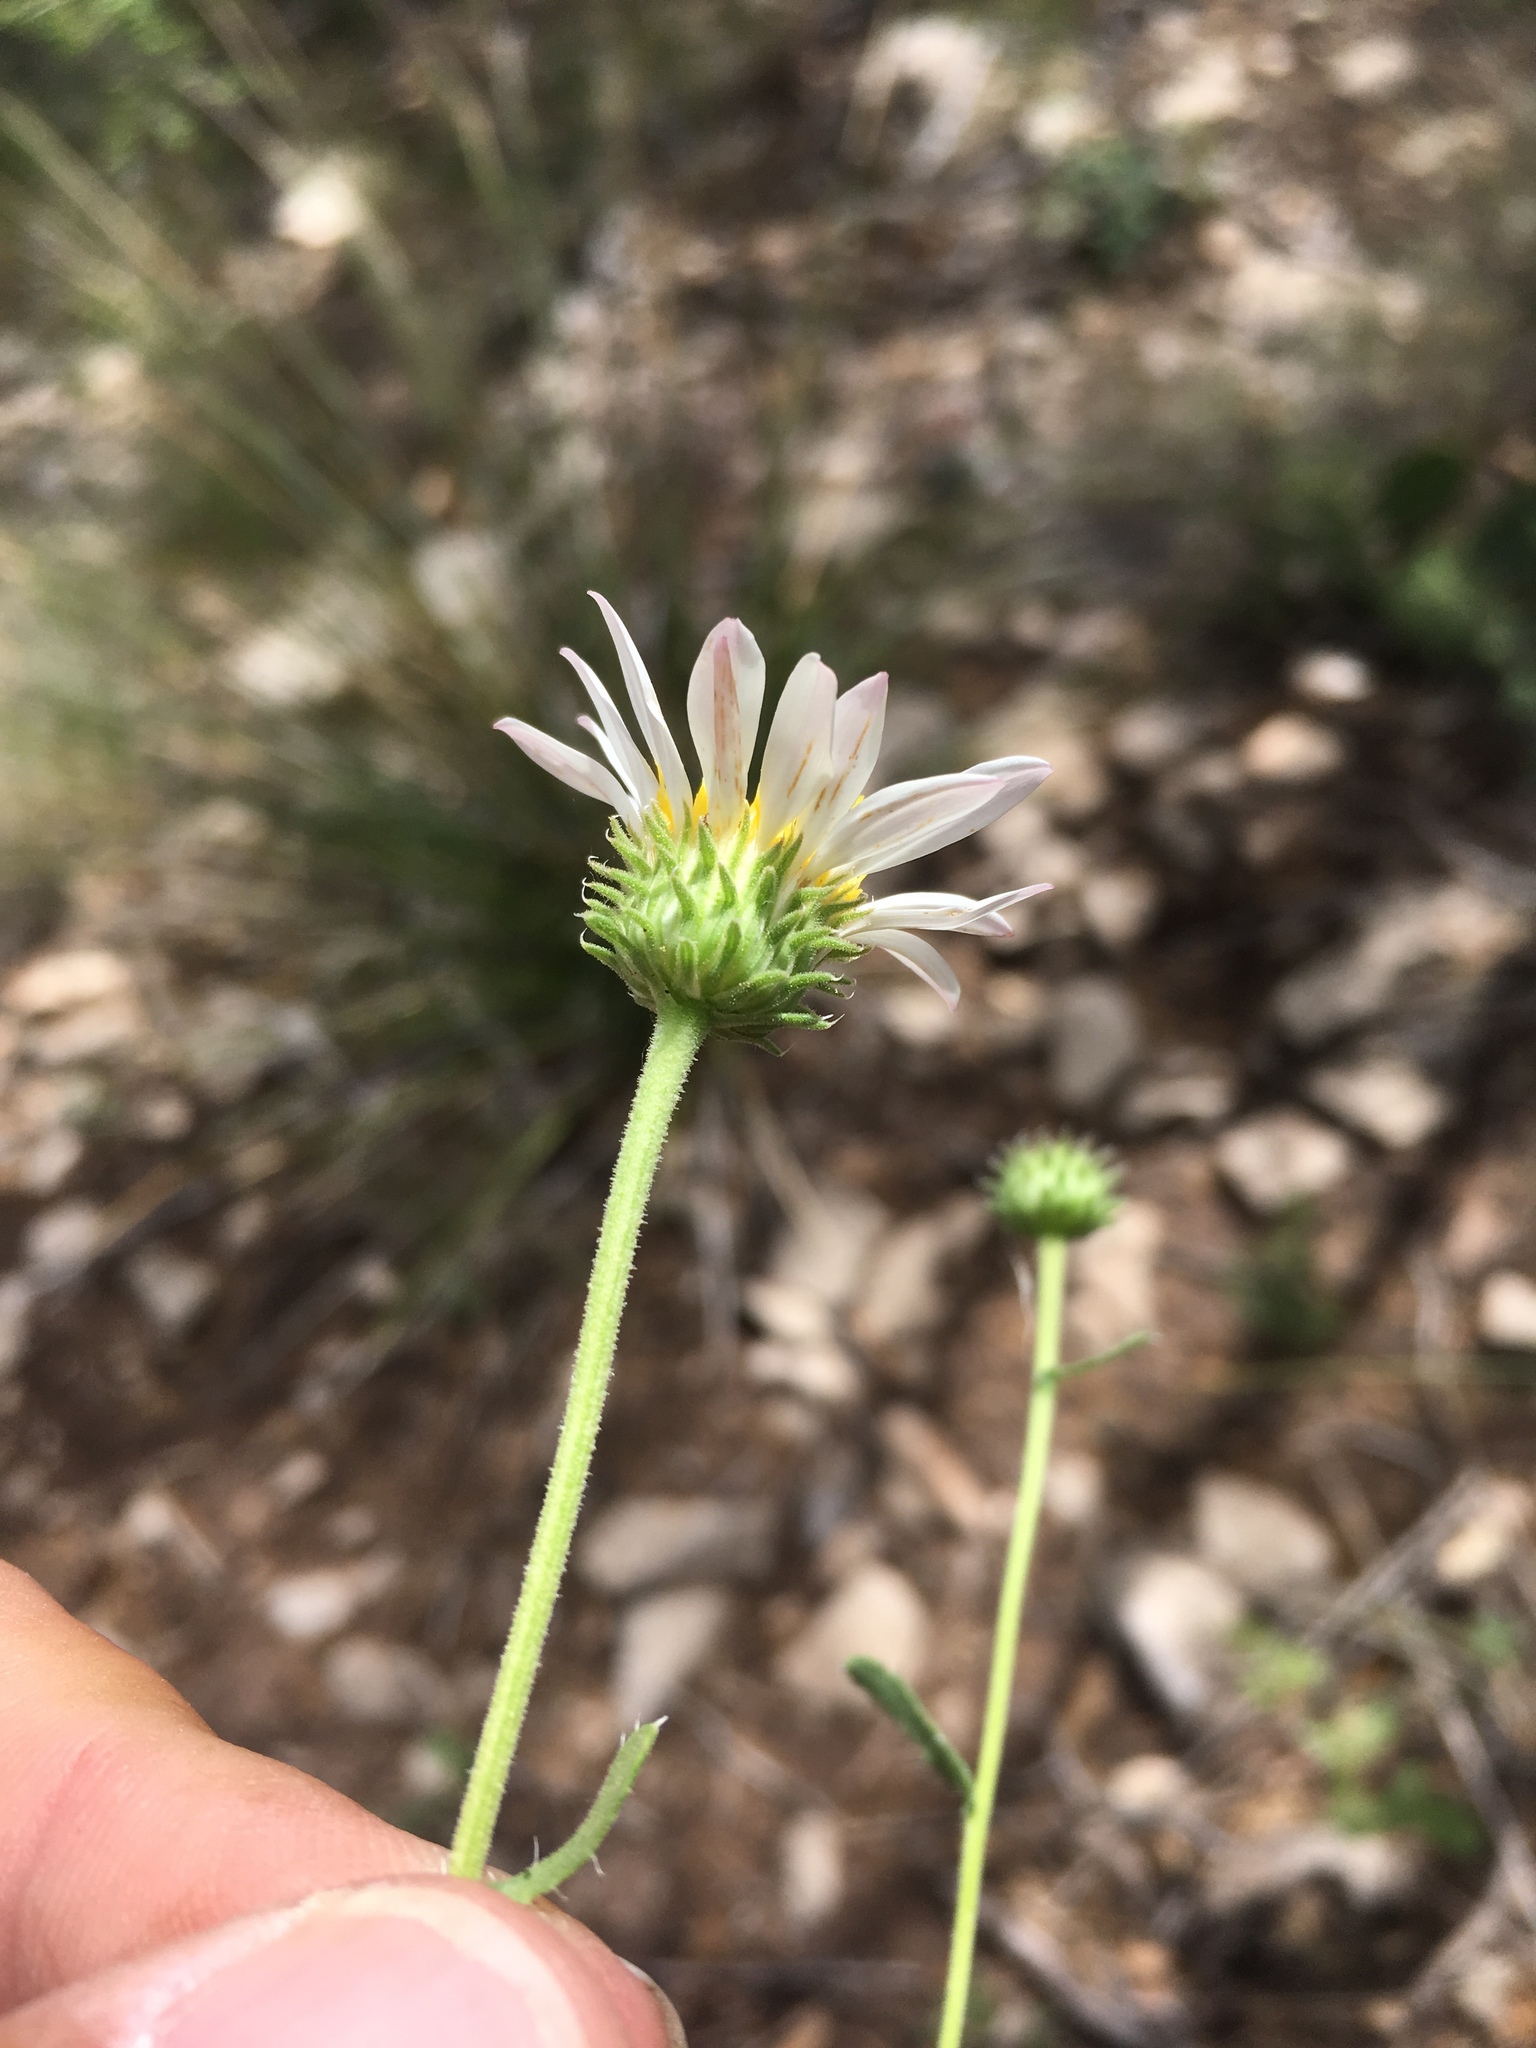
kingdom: Plantae
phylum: Tracheophyta
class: Magnoliopsida
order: Asterales
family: Asteraceae
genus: Xanthisma
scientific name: Xanthisma blephariphyllum
